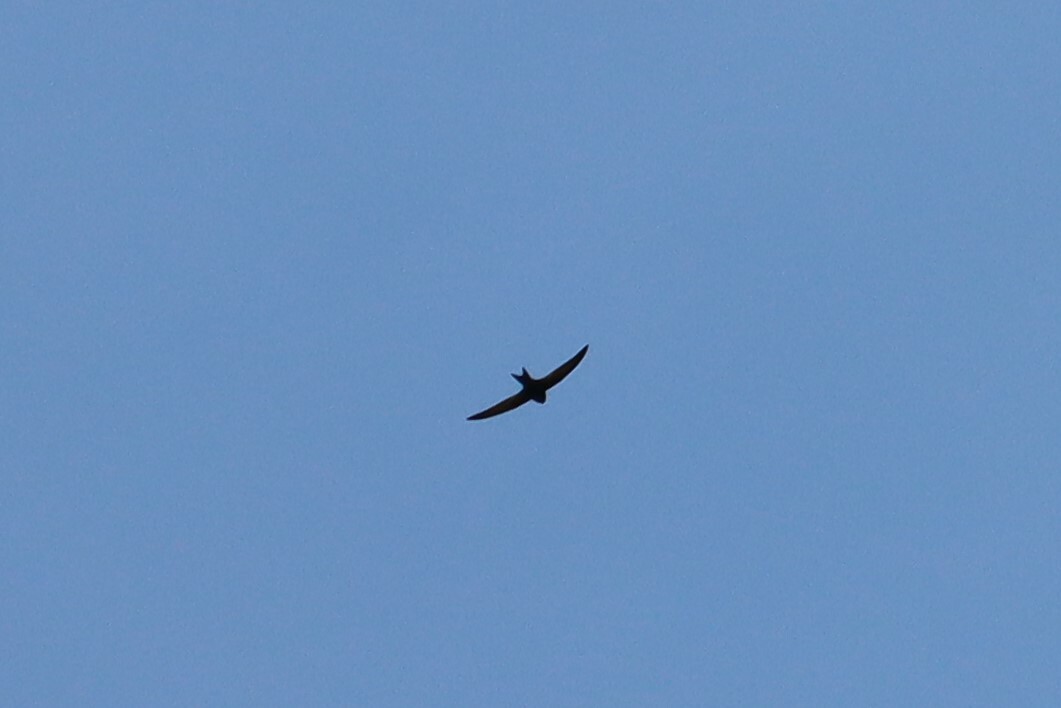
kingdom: Animalia
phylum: Chordata
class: Aves
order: Apodiformes
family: Apodidae
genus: Apus
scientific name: Apus apus
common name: Common swift
